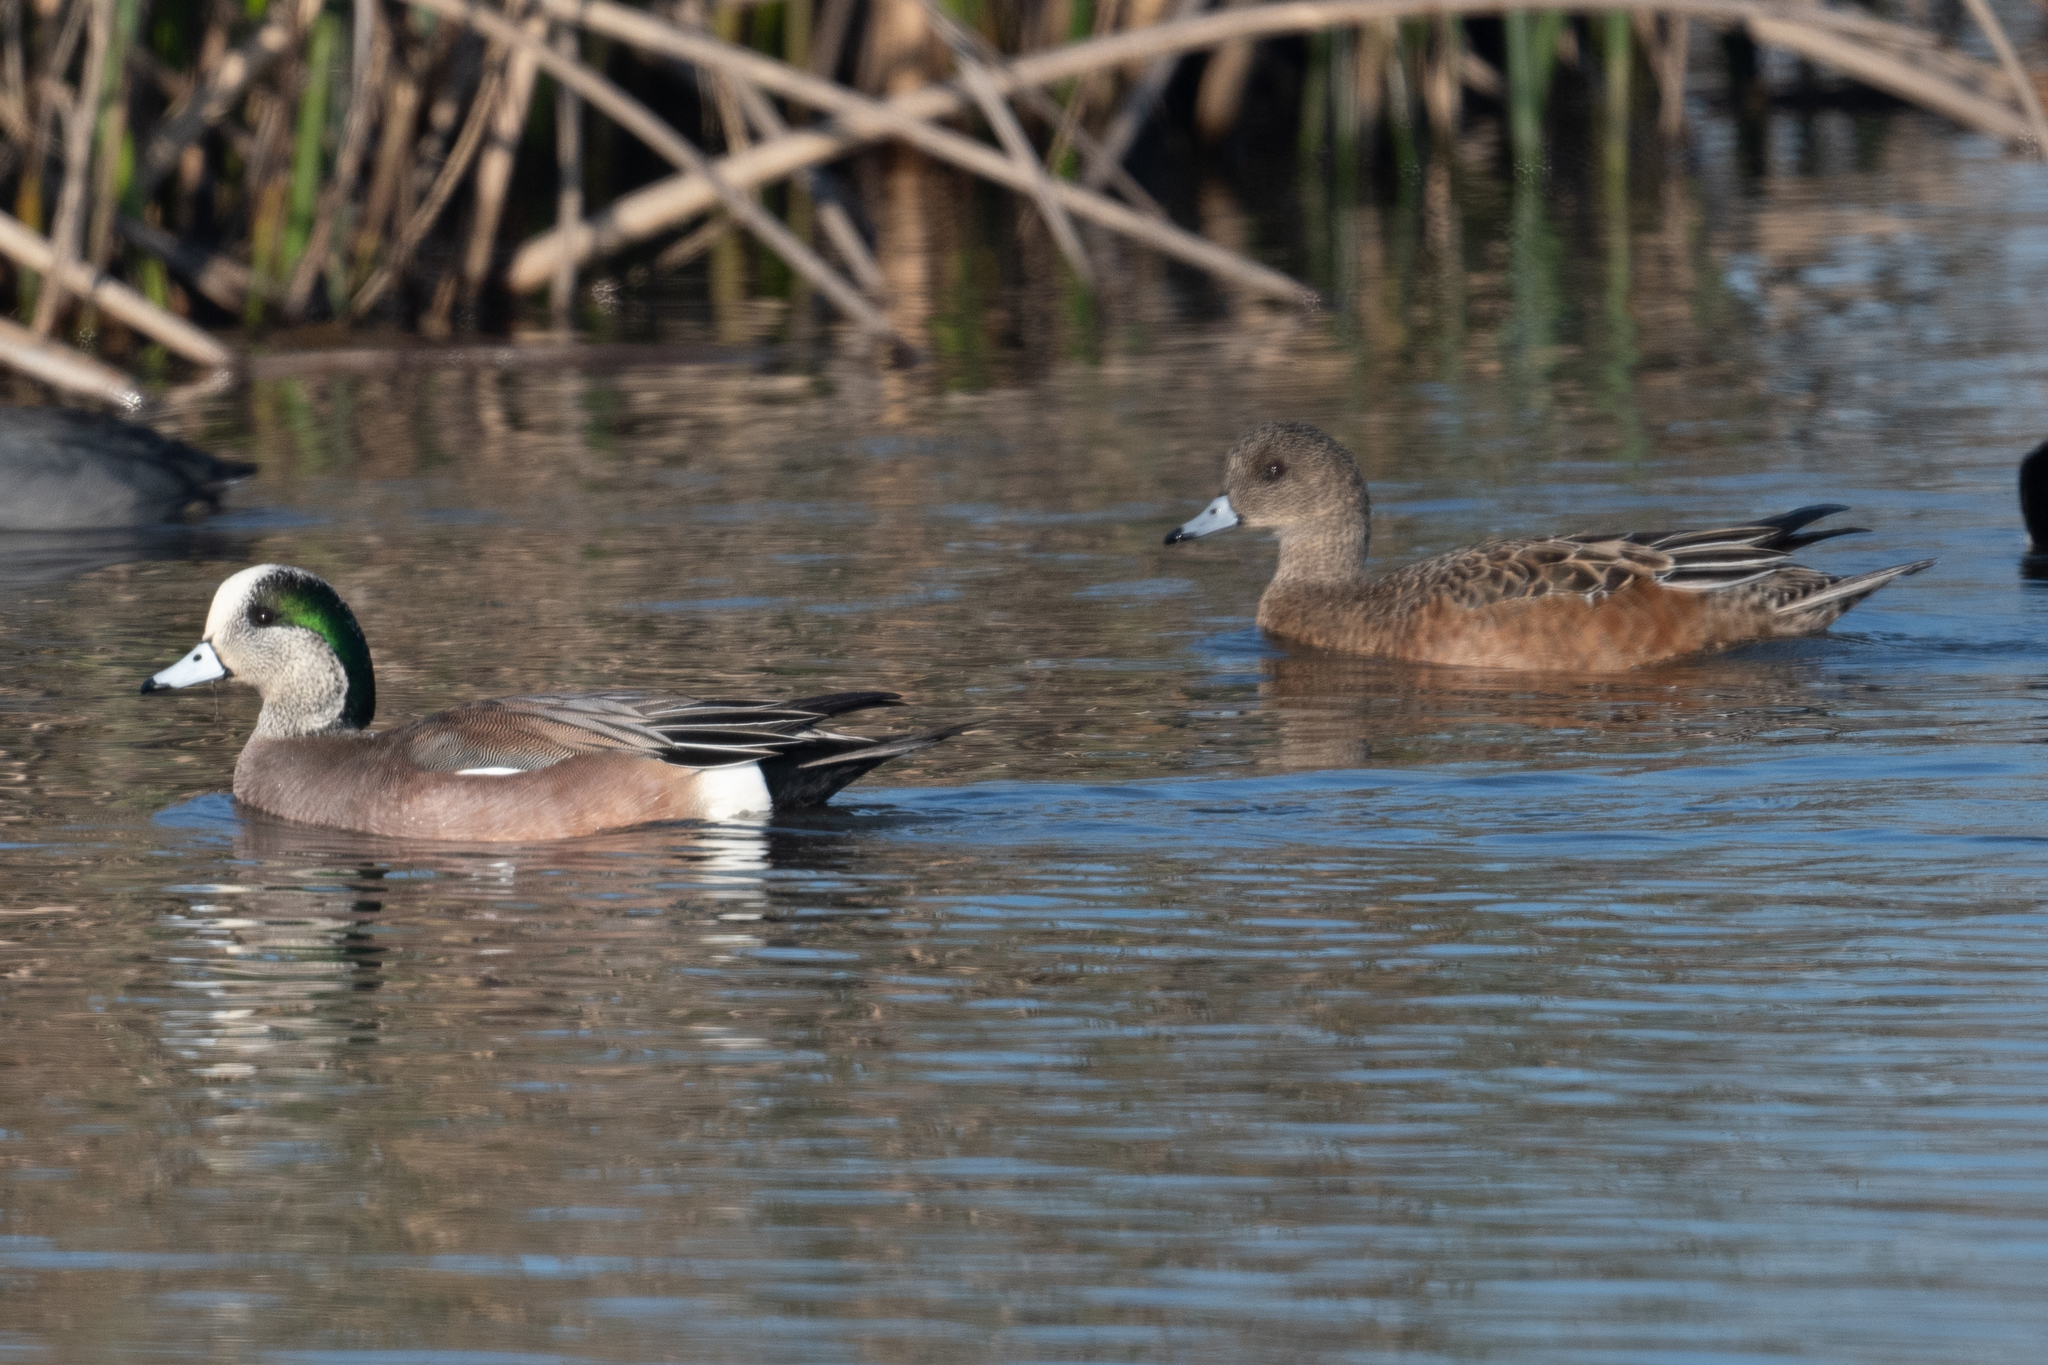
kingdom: Animalia
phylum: Chordata
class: Aves
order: Anseriformes
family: Anatidae
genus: Mareca
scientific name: Mareca americana
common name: American wigeon
